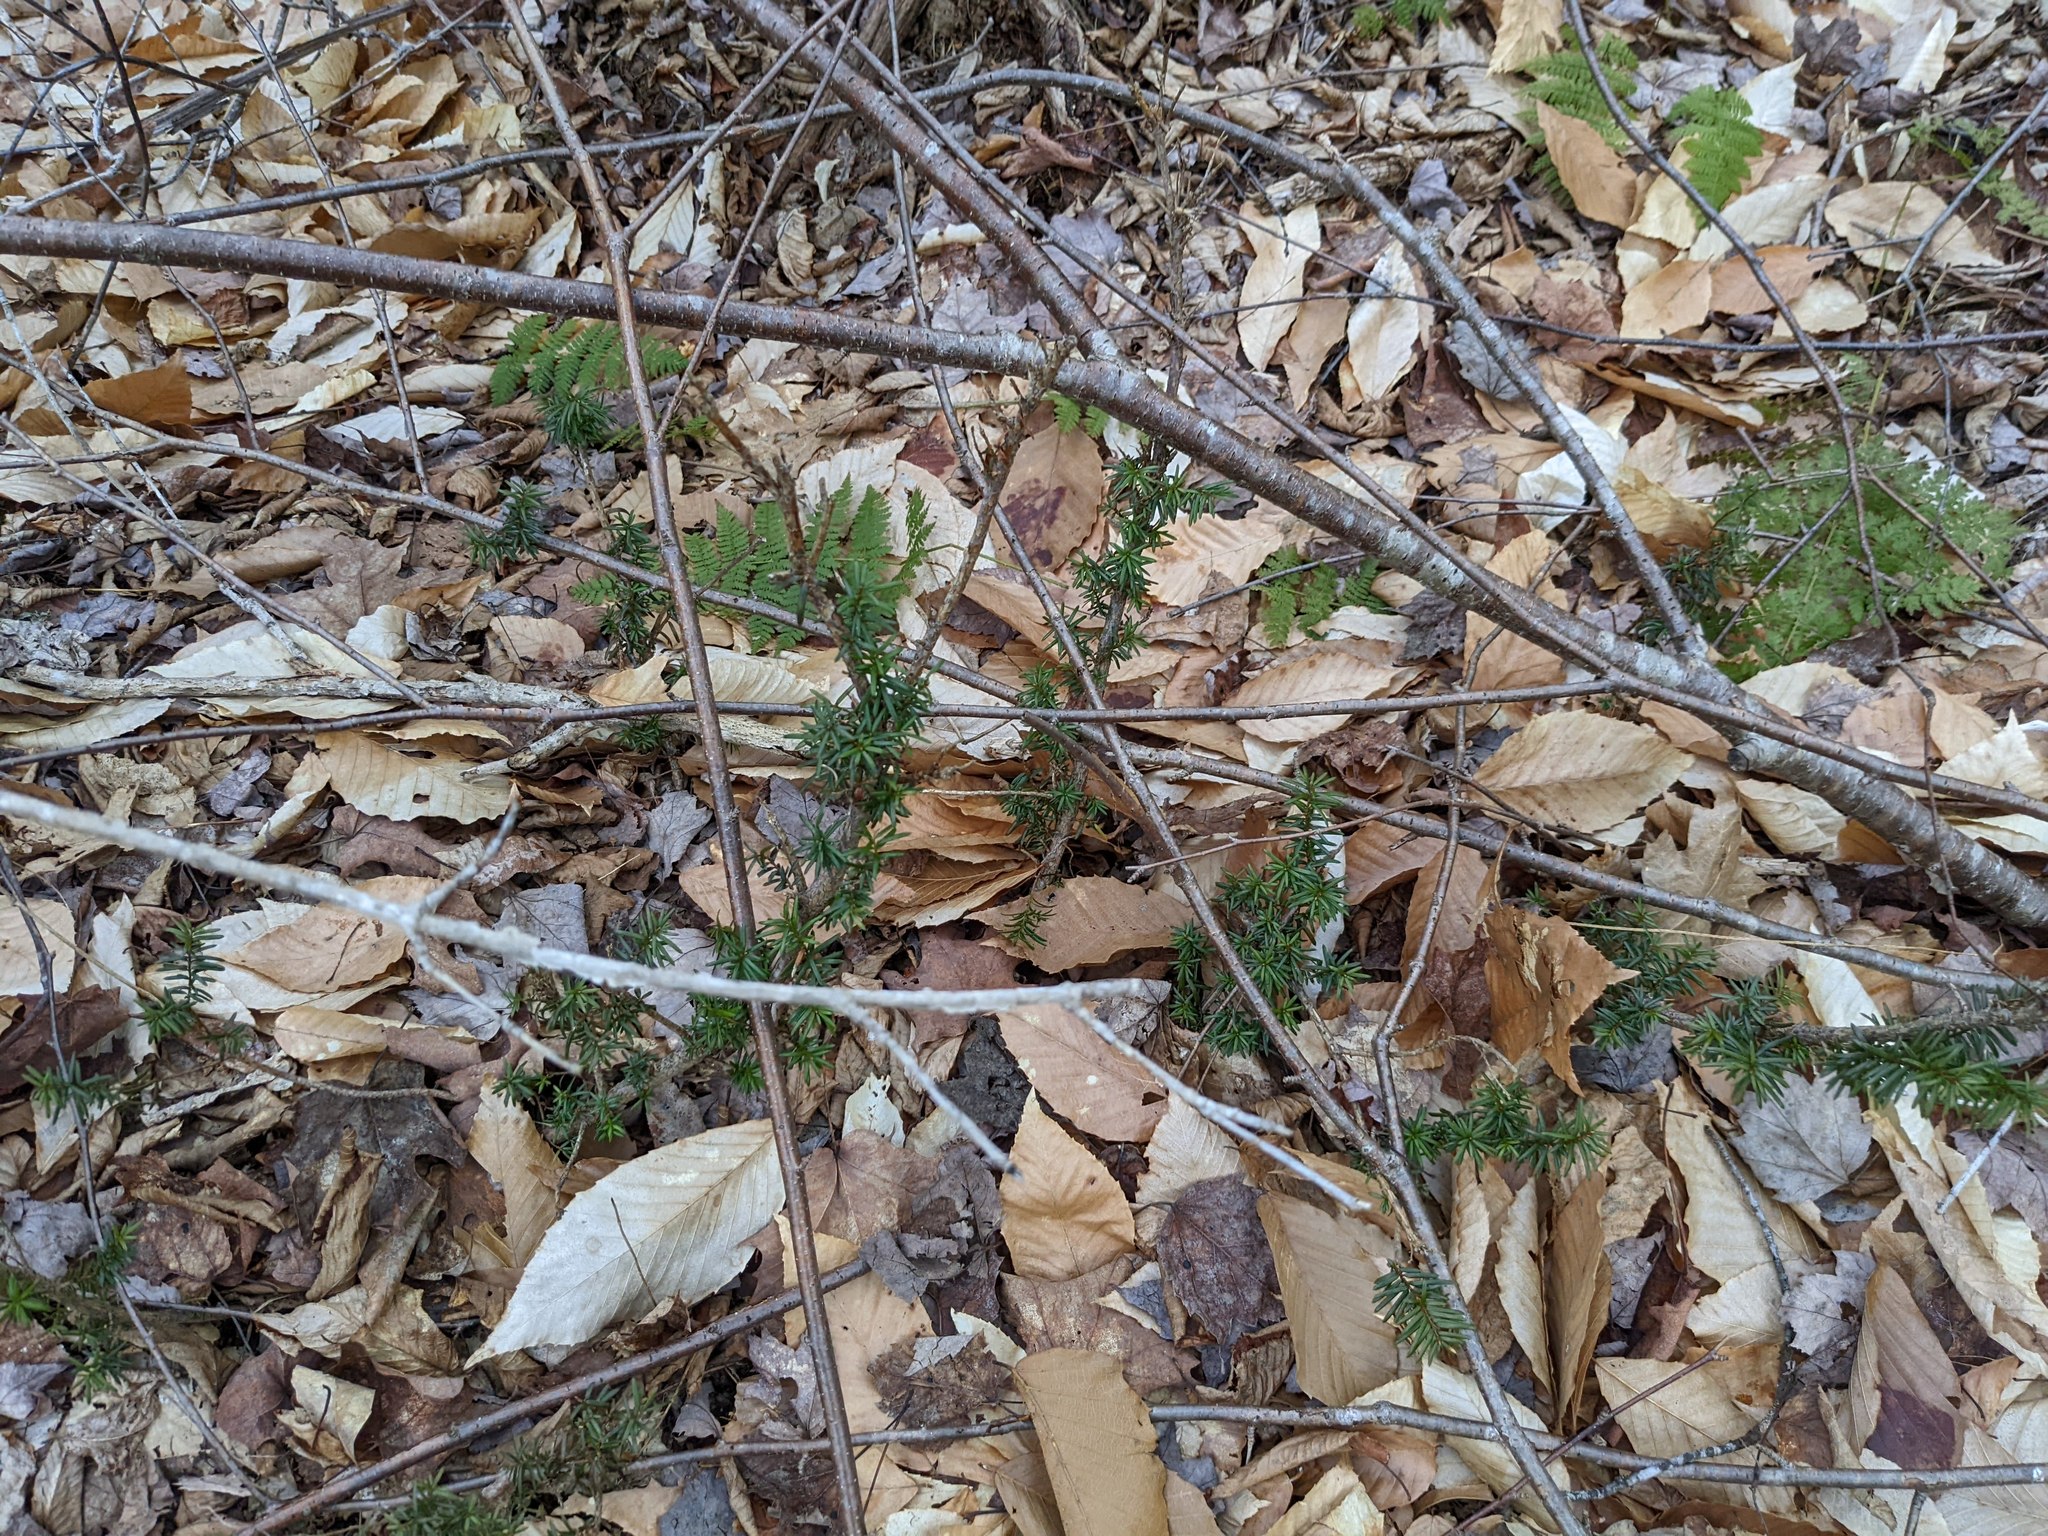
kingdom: Plantae
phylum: Tracheophyta
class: Magnoliopsida
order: Fagales
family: Fagaceae
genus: Fagus
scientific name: Fagus grandifolia
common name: American beech
